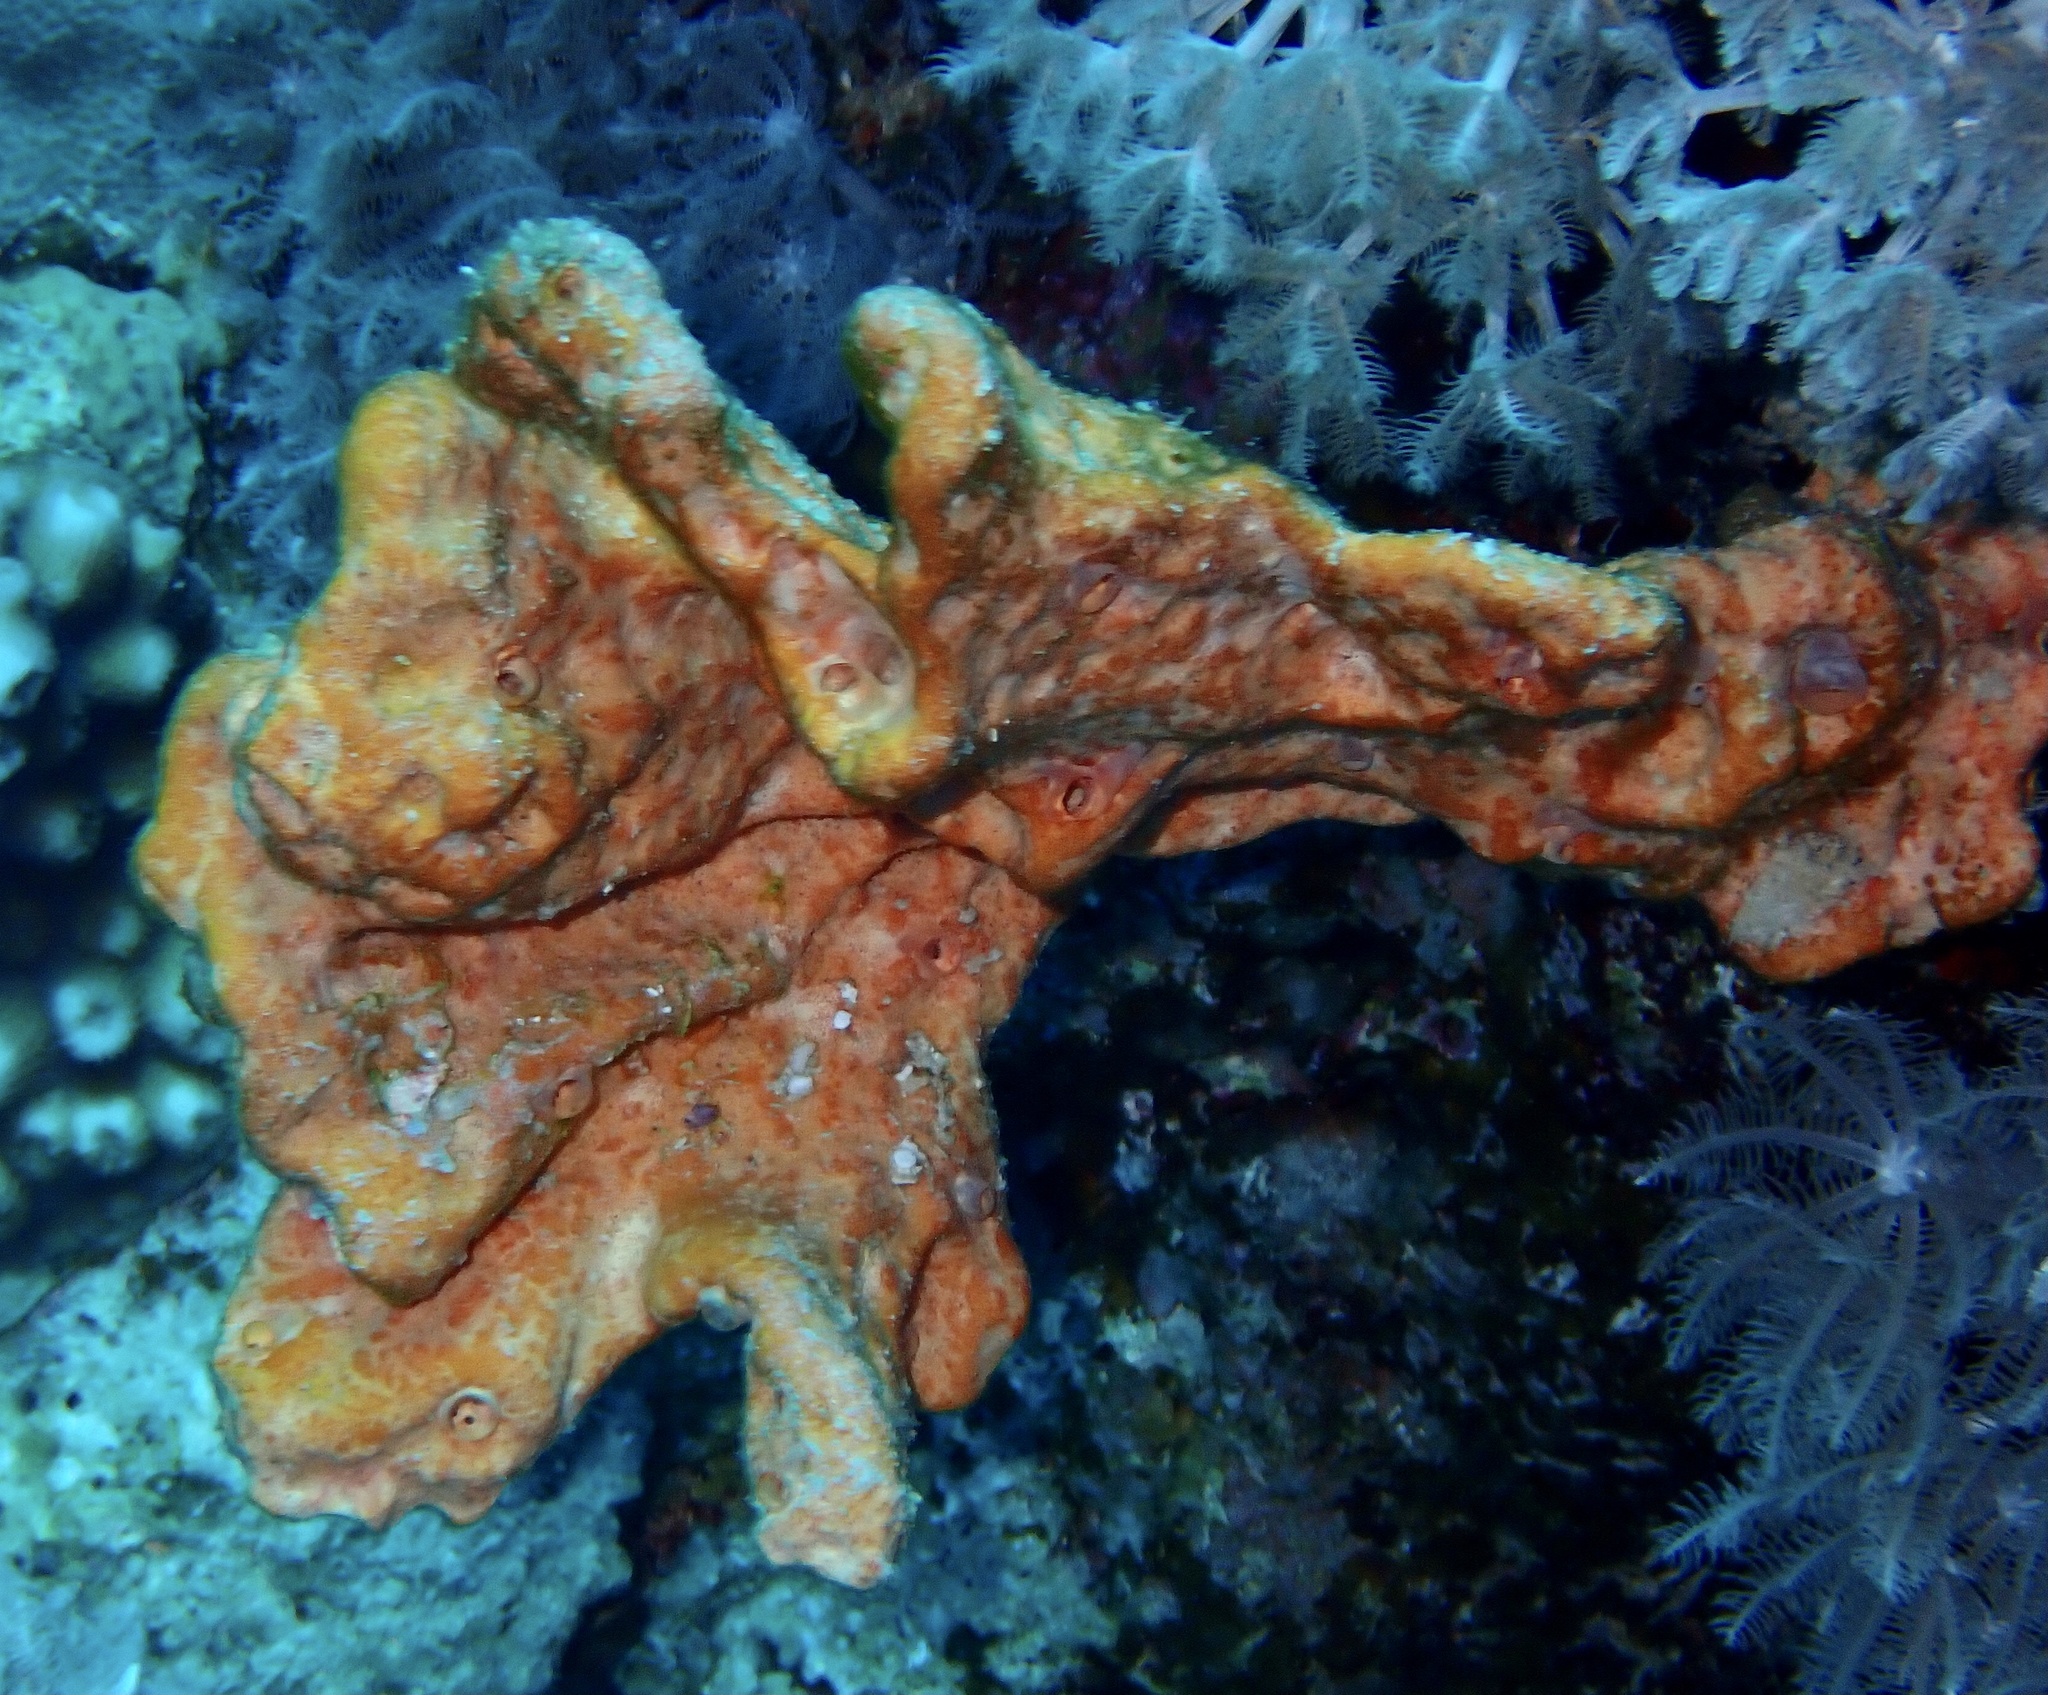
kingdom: Animalia
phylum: Porifera
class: Demospongiae
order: Scopalinida
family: Scopalinidae
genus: Stylissa
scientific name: Stylissa carteri
